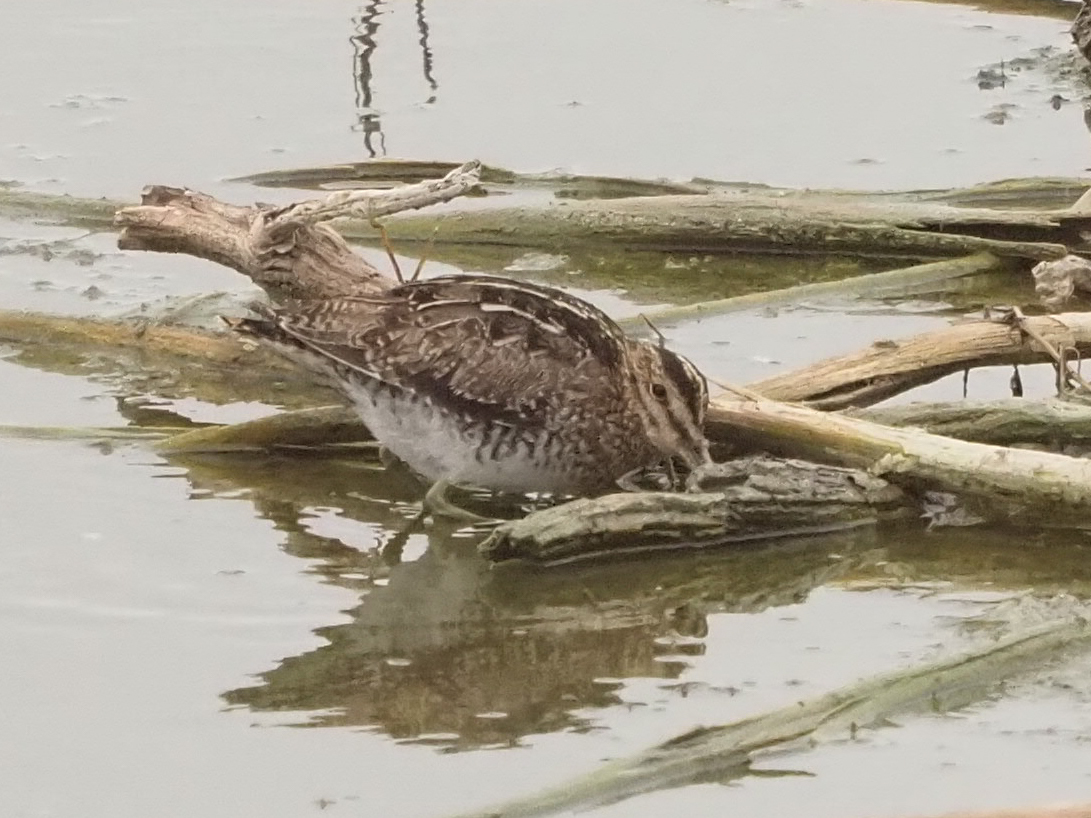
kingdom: Animalia
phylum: Chordata
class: Aves
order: Charadriiformes
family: Scolopacidae
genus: Gallinago
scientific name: Gallinago delicata
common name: Wilson's snipe
